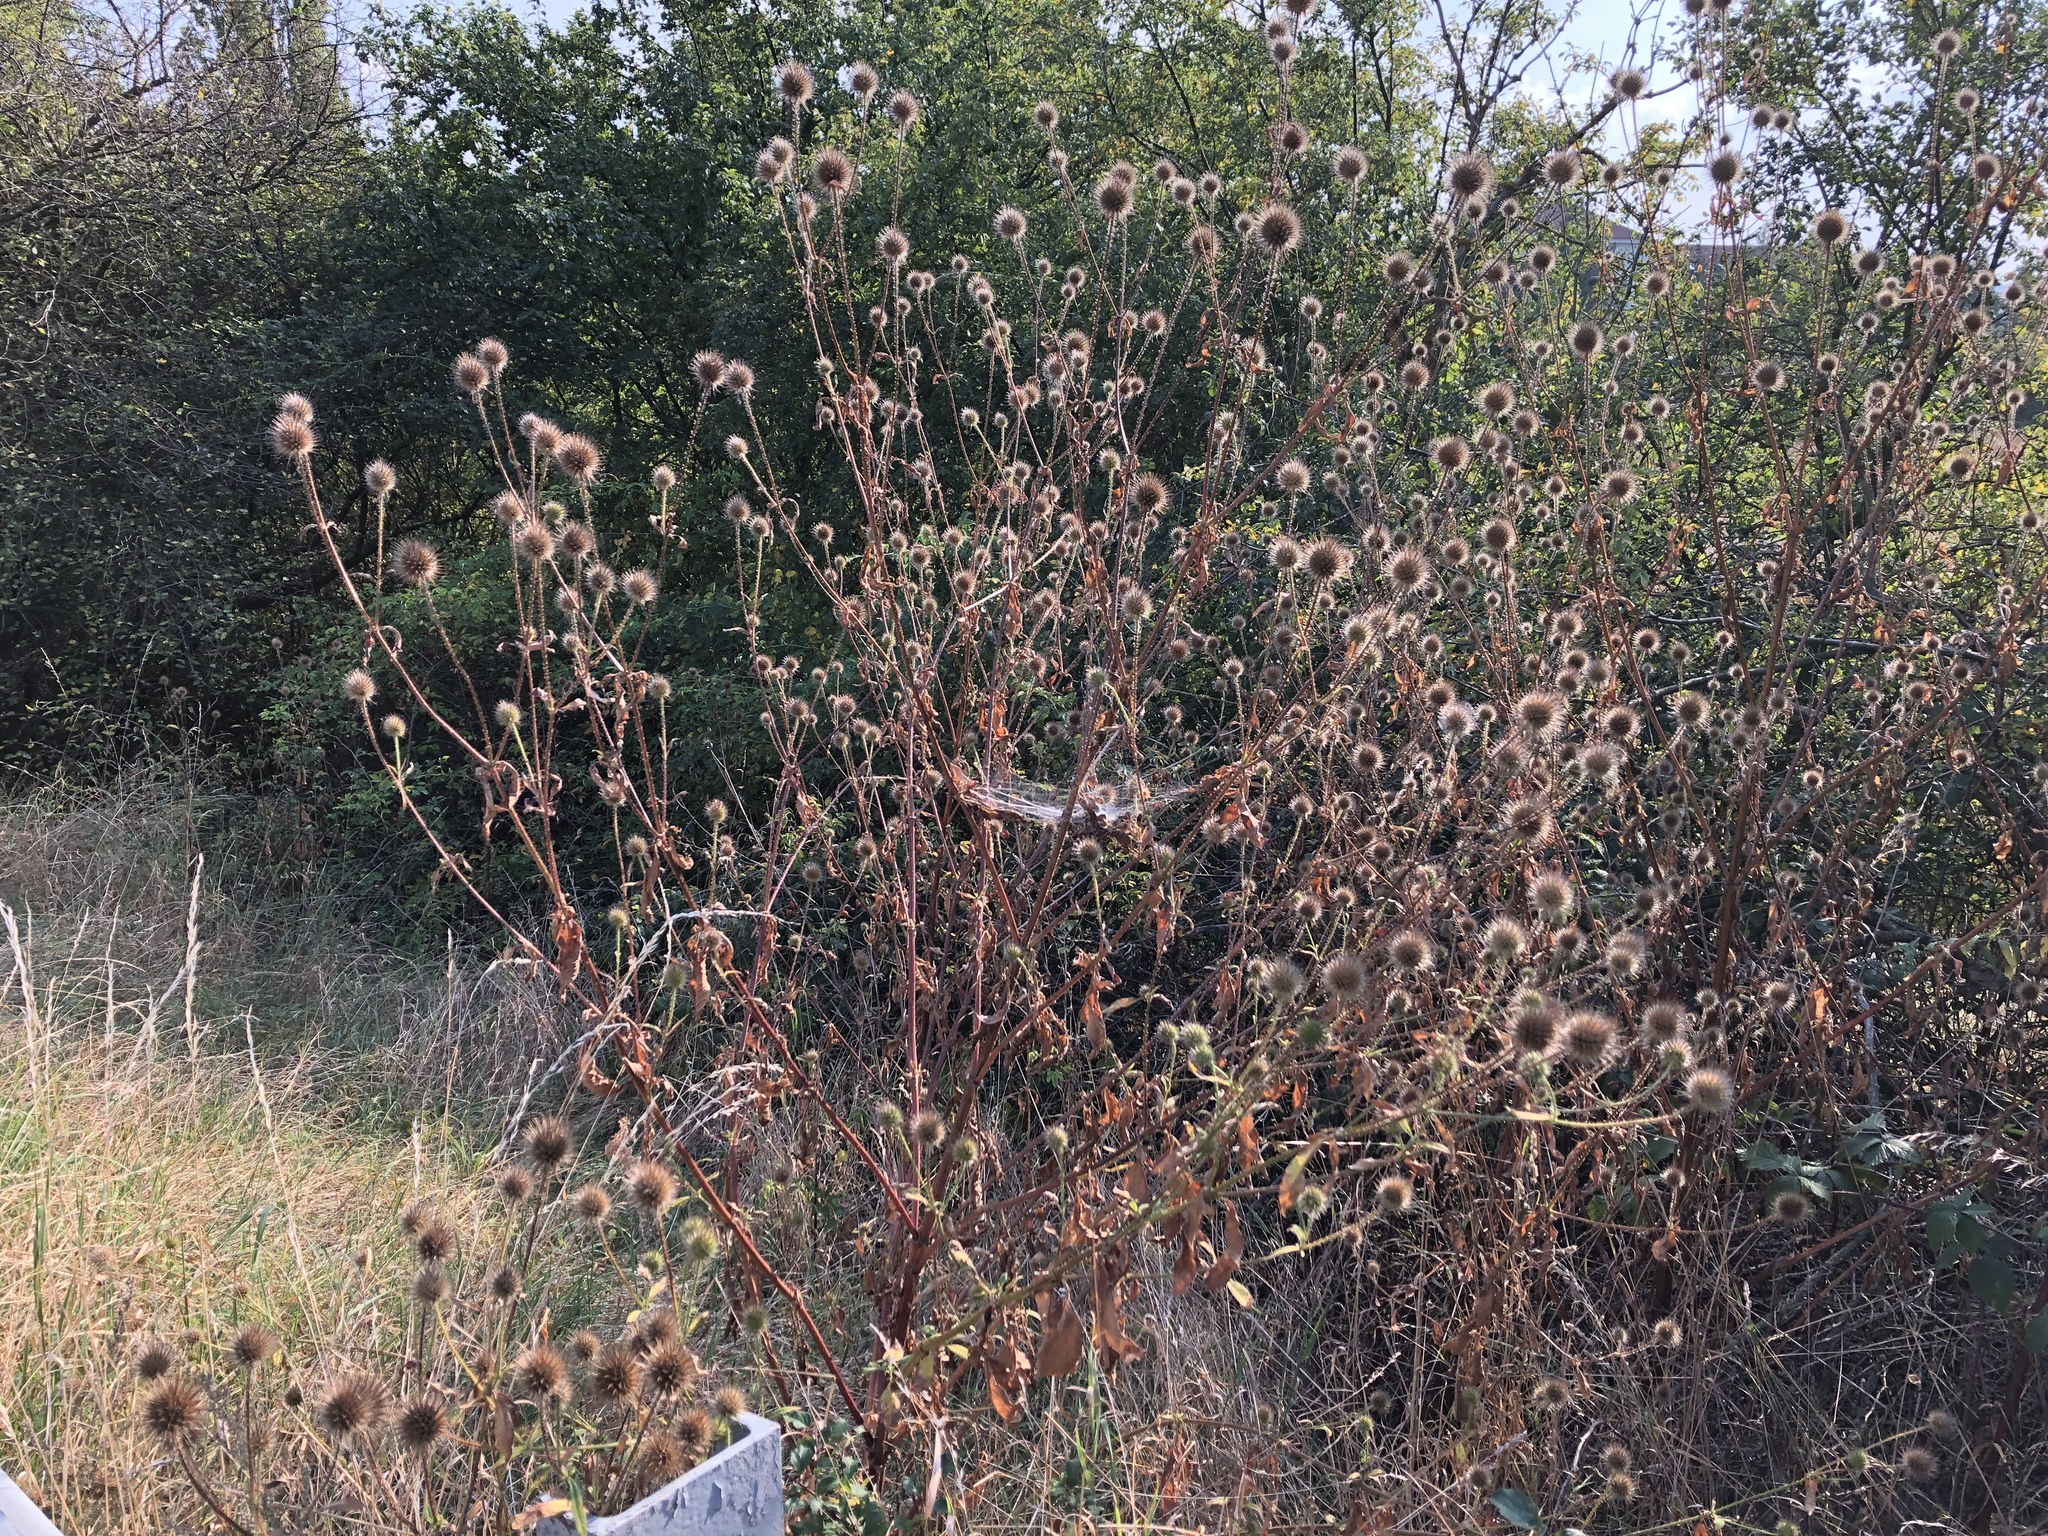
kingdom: Plantae
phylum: Tracheophyta
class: Magnoliopsida
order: Dipsacales
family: Caprifoliaceae
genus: Dipsacus
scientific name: Dipsacus strigosus
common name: Yellow-flowered teasel
